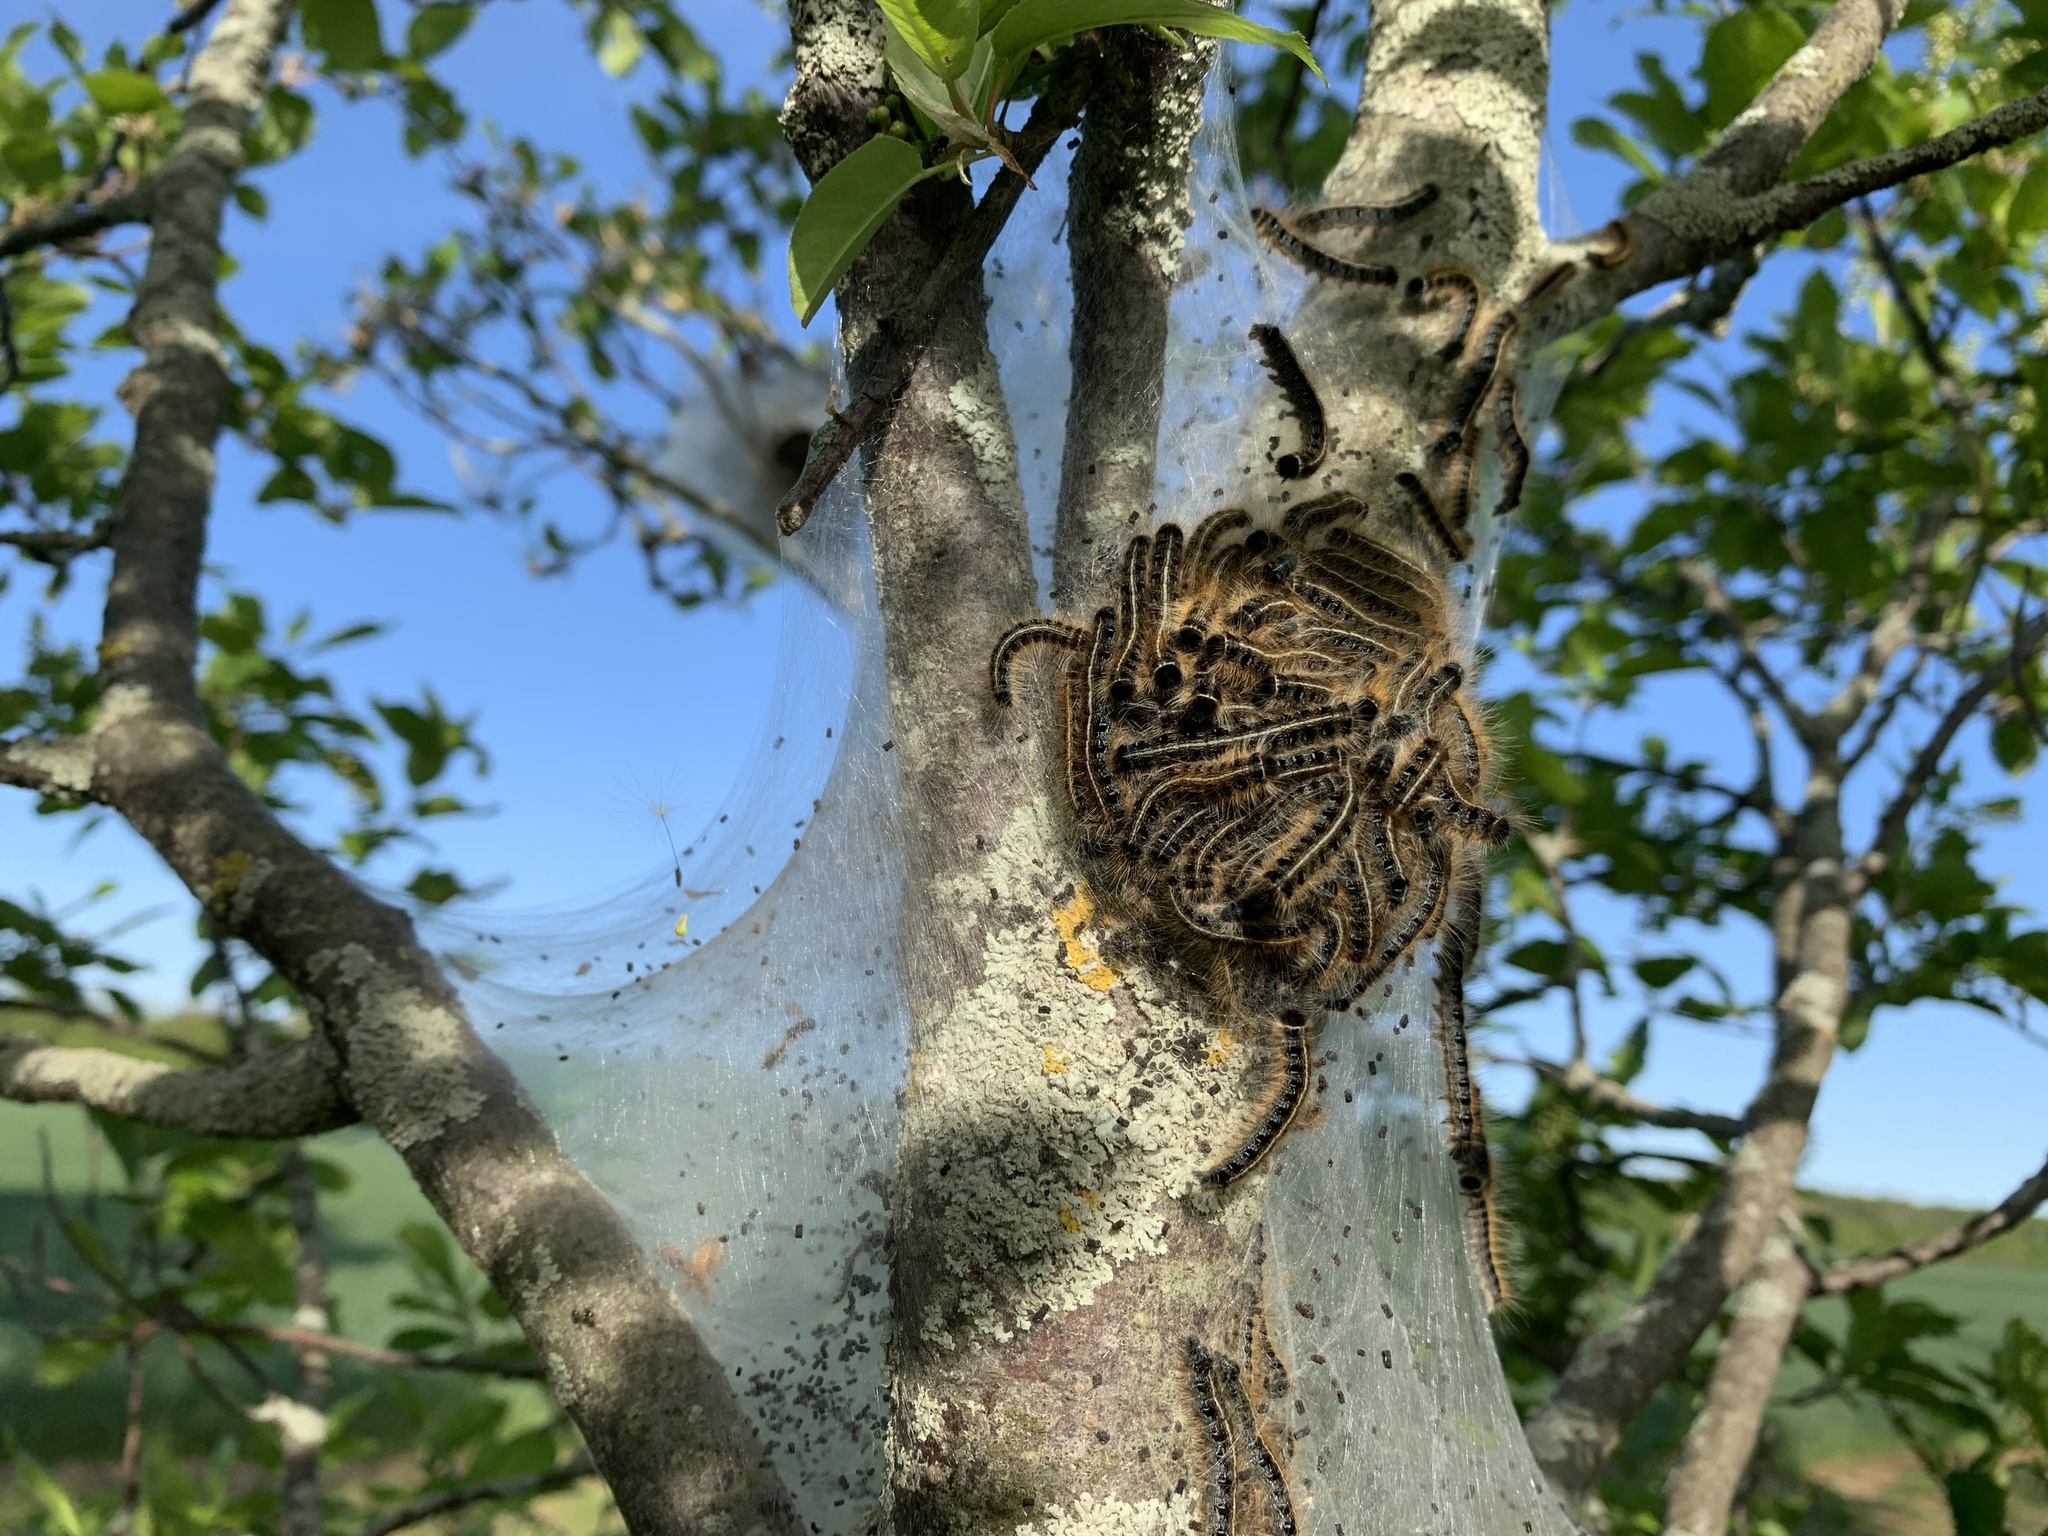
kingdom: Animalia
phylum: Arthropoda
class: Insecta
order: Lepidoptera
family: Lasiocampidae
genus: Malacosoma
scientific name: Malacosoma americana
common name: Eastern tent caterpillar moth
